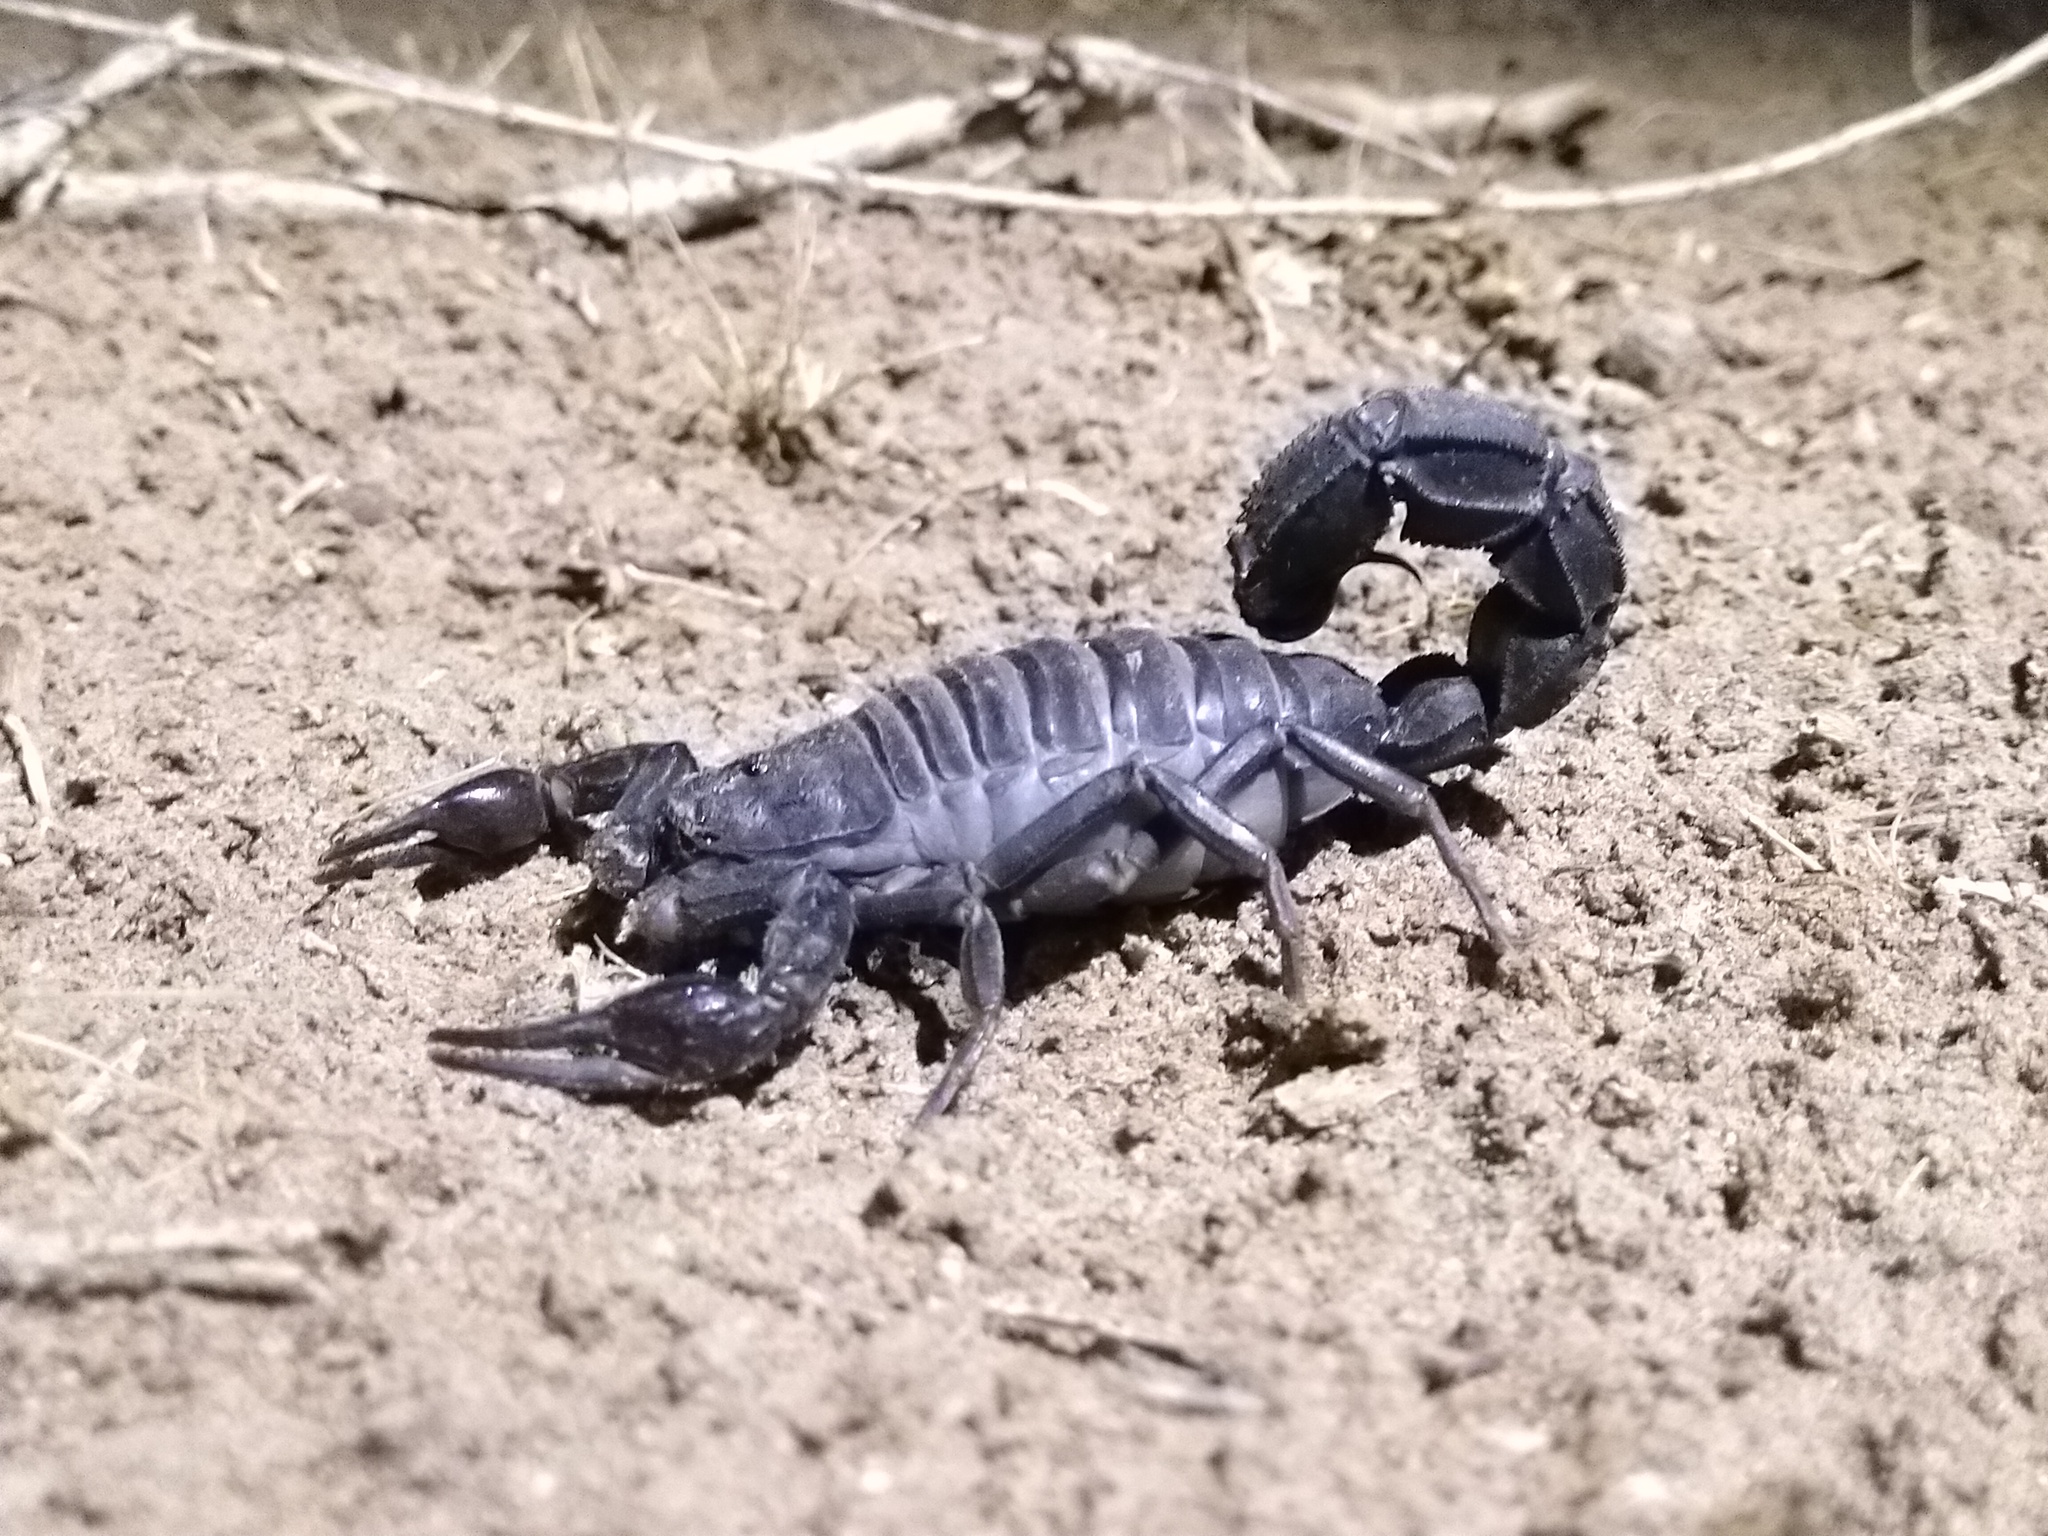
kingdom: Animalia
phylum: Arthropoda
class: Arachnida
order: Scorpiones
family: Buthidae
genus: Androctonus
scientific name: Androctonus crassicauda
